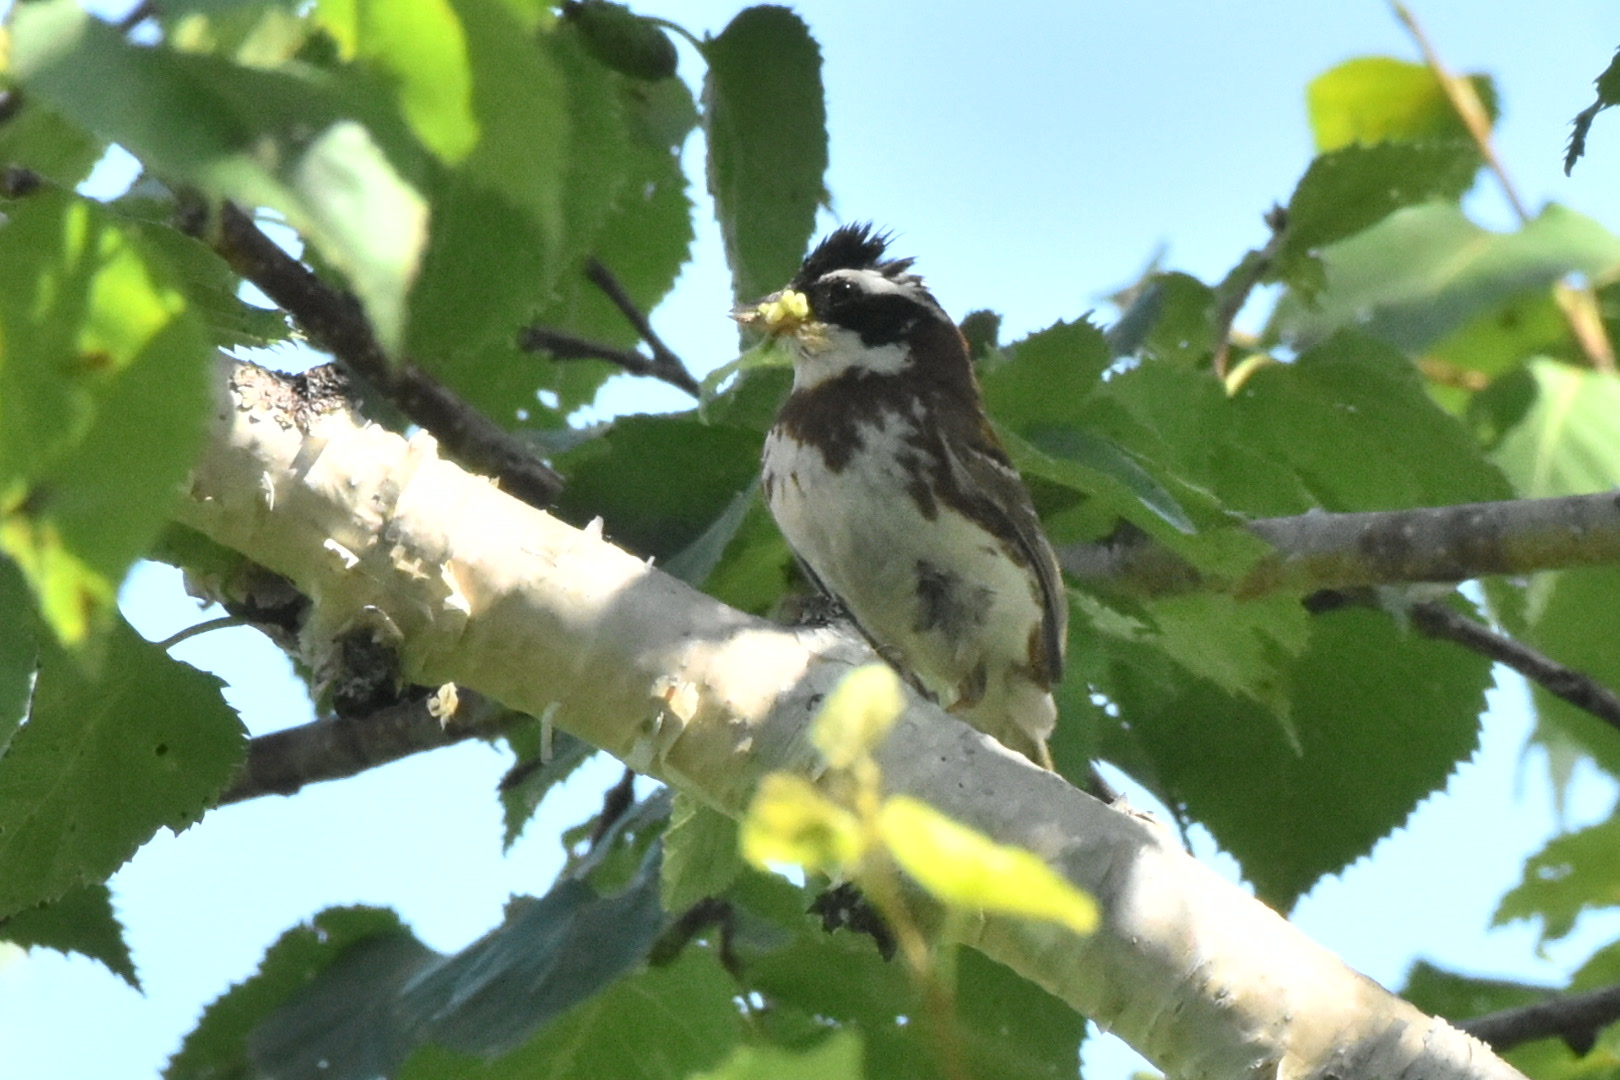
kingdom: Animalia
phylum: Chordata
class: Aves
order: Passeriformes
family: Emberizidae
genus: Emberiza
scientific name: Emberiza rustica
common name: Rustic bunting
